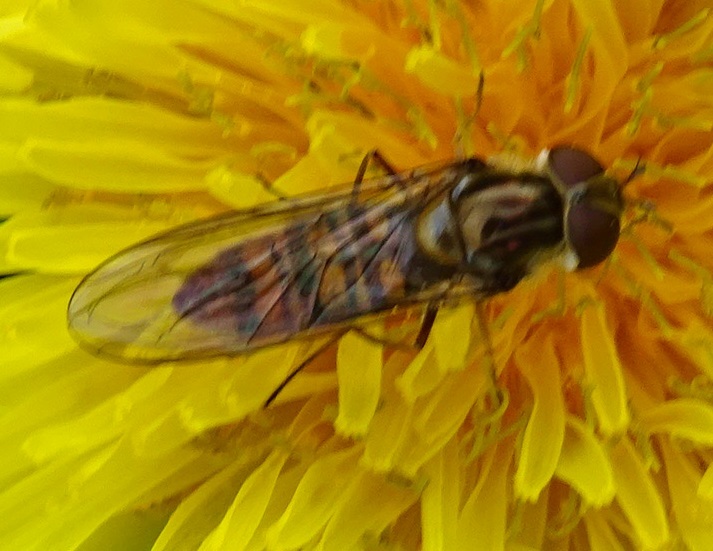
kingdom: Animalia
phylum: Arthropoda
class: Insecta
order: Diptera
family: Syrphidae
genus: Episyrphus
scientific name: Episyrphus balteatus
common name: Marmalade hoverfly
